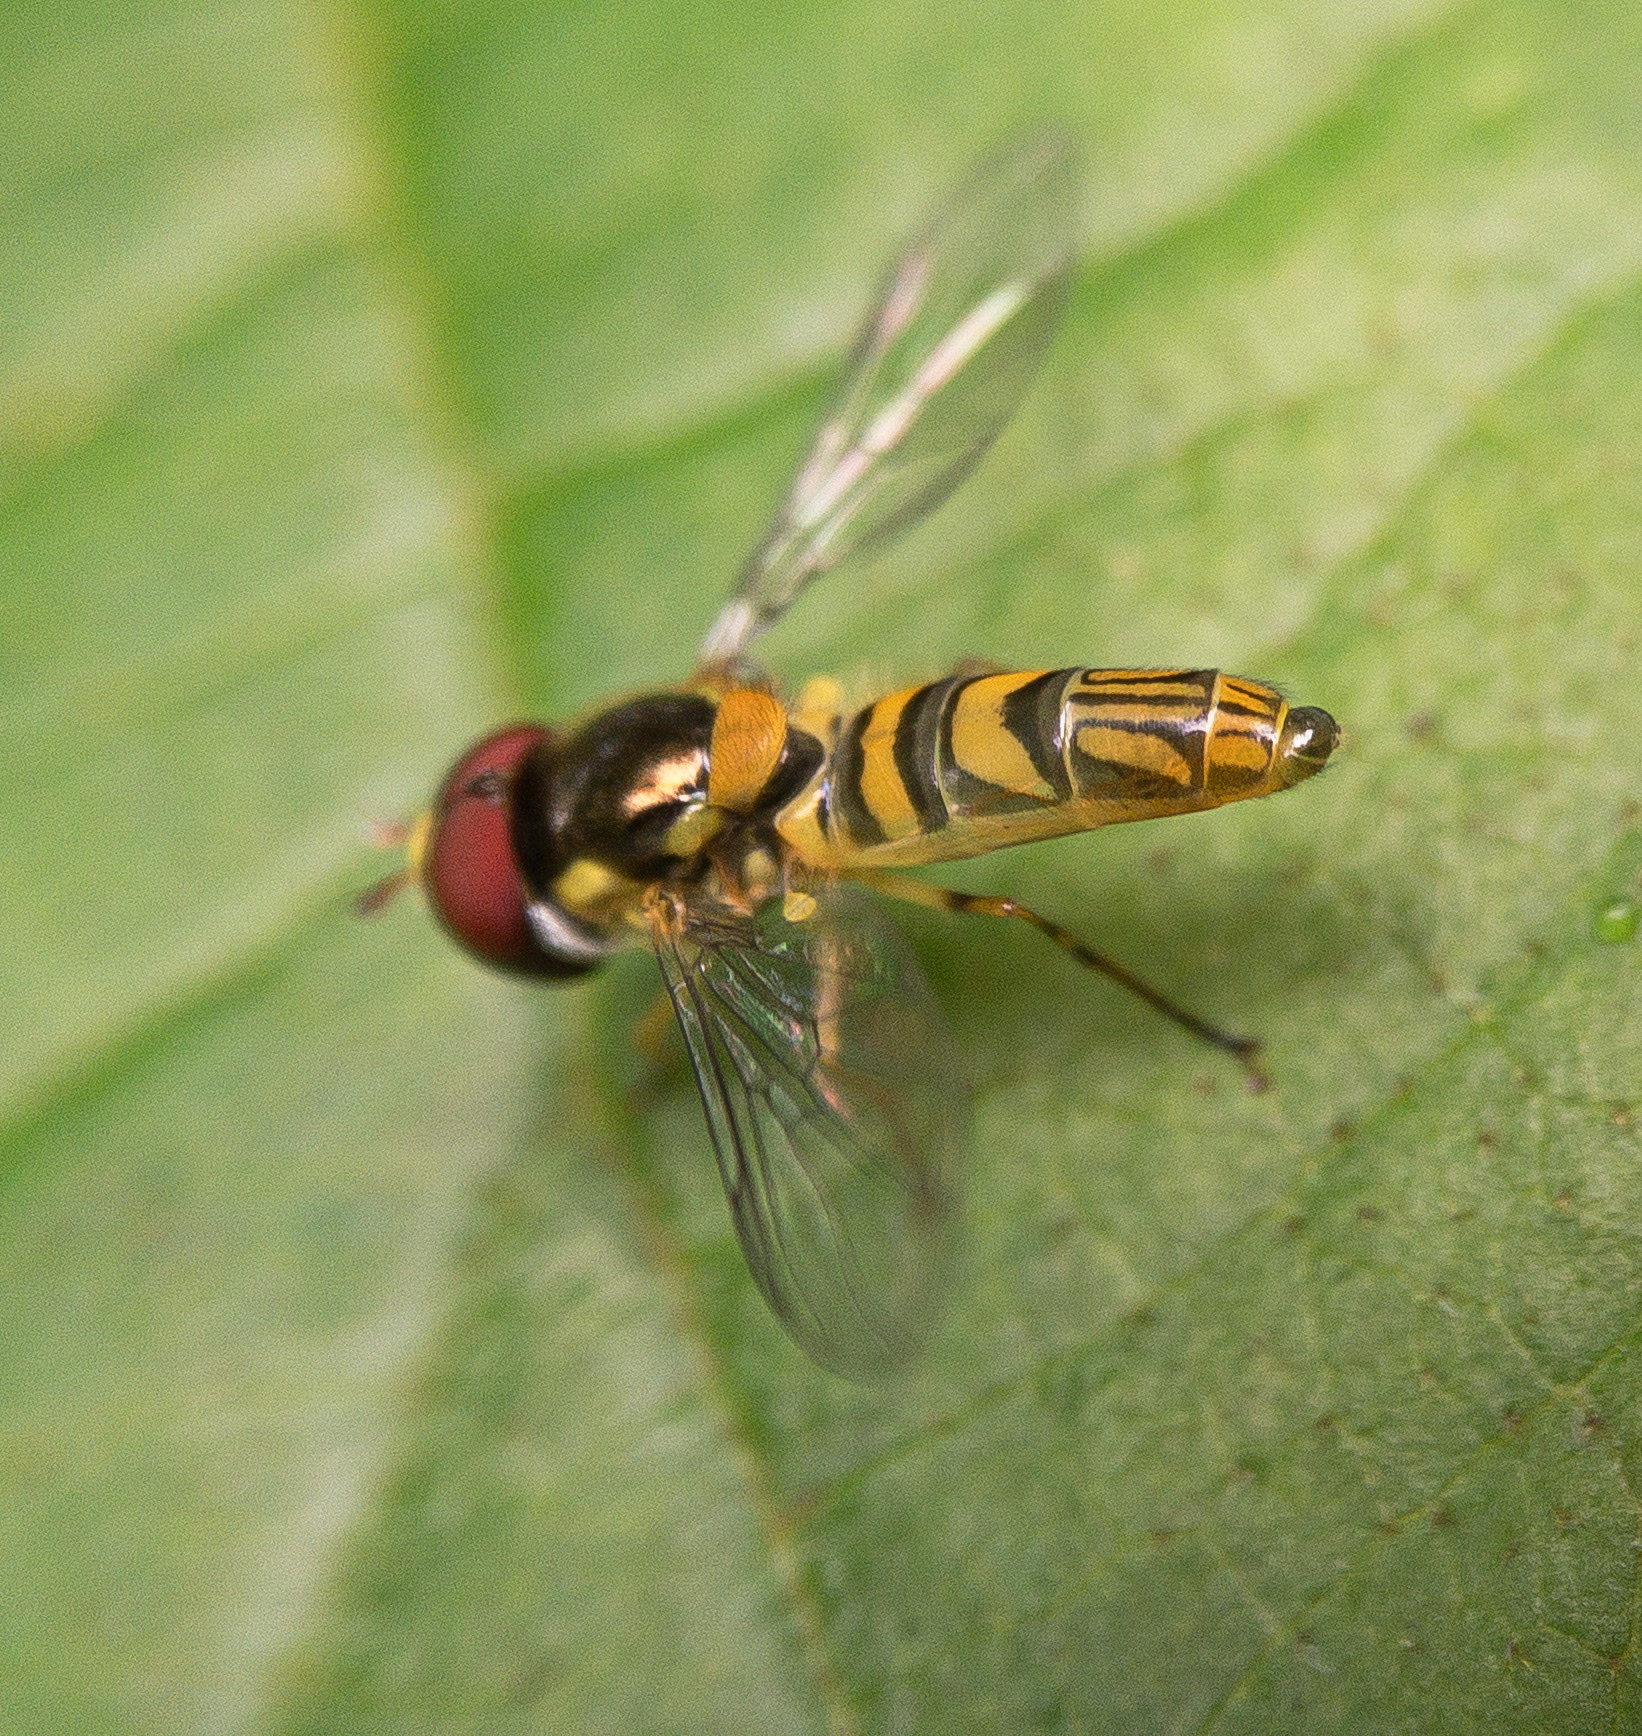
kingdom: Animalia
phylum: Arthropoda
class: Insecta
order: Diptera
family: Syrphidae
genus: Allograpta
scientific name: Allograpta obliqua
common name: Common oblique syrphid
